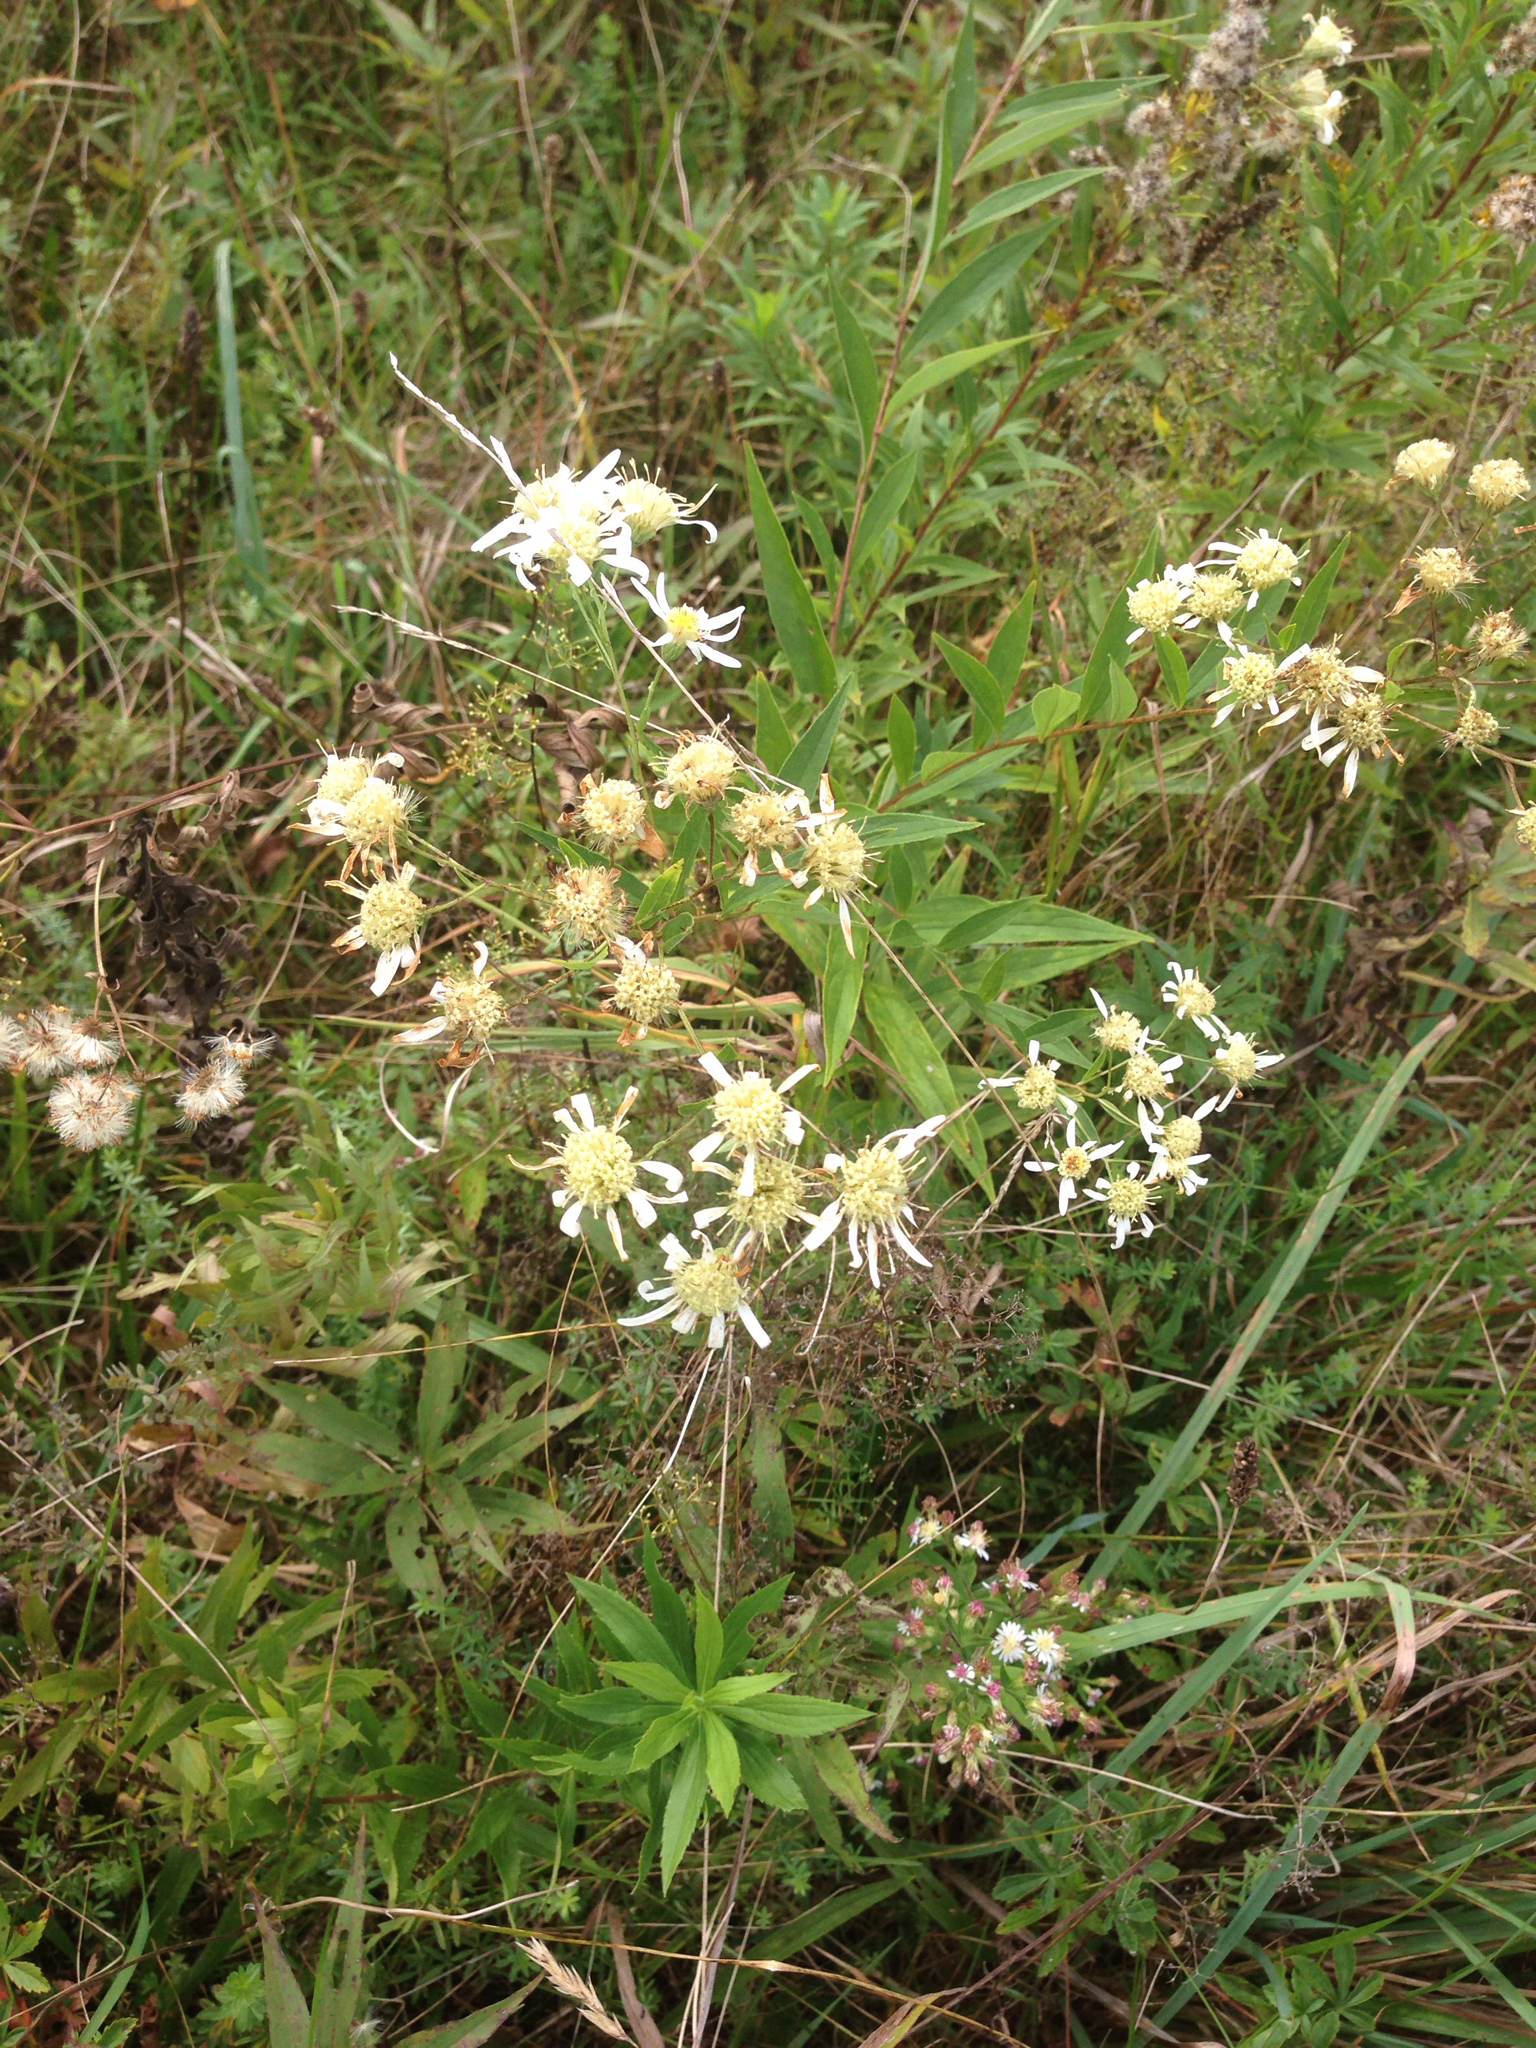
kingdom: Plantae
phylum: Tracheophyta
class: Magnoliopsida
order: Asterales
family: Asteraceae
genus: Doellingeria
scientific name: Doellingeria umbellata
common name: Flat-top white aster
